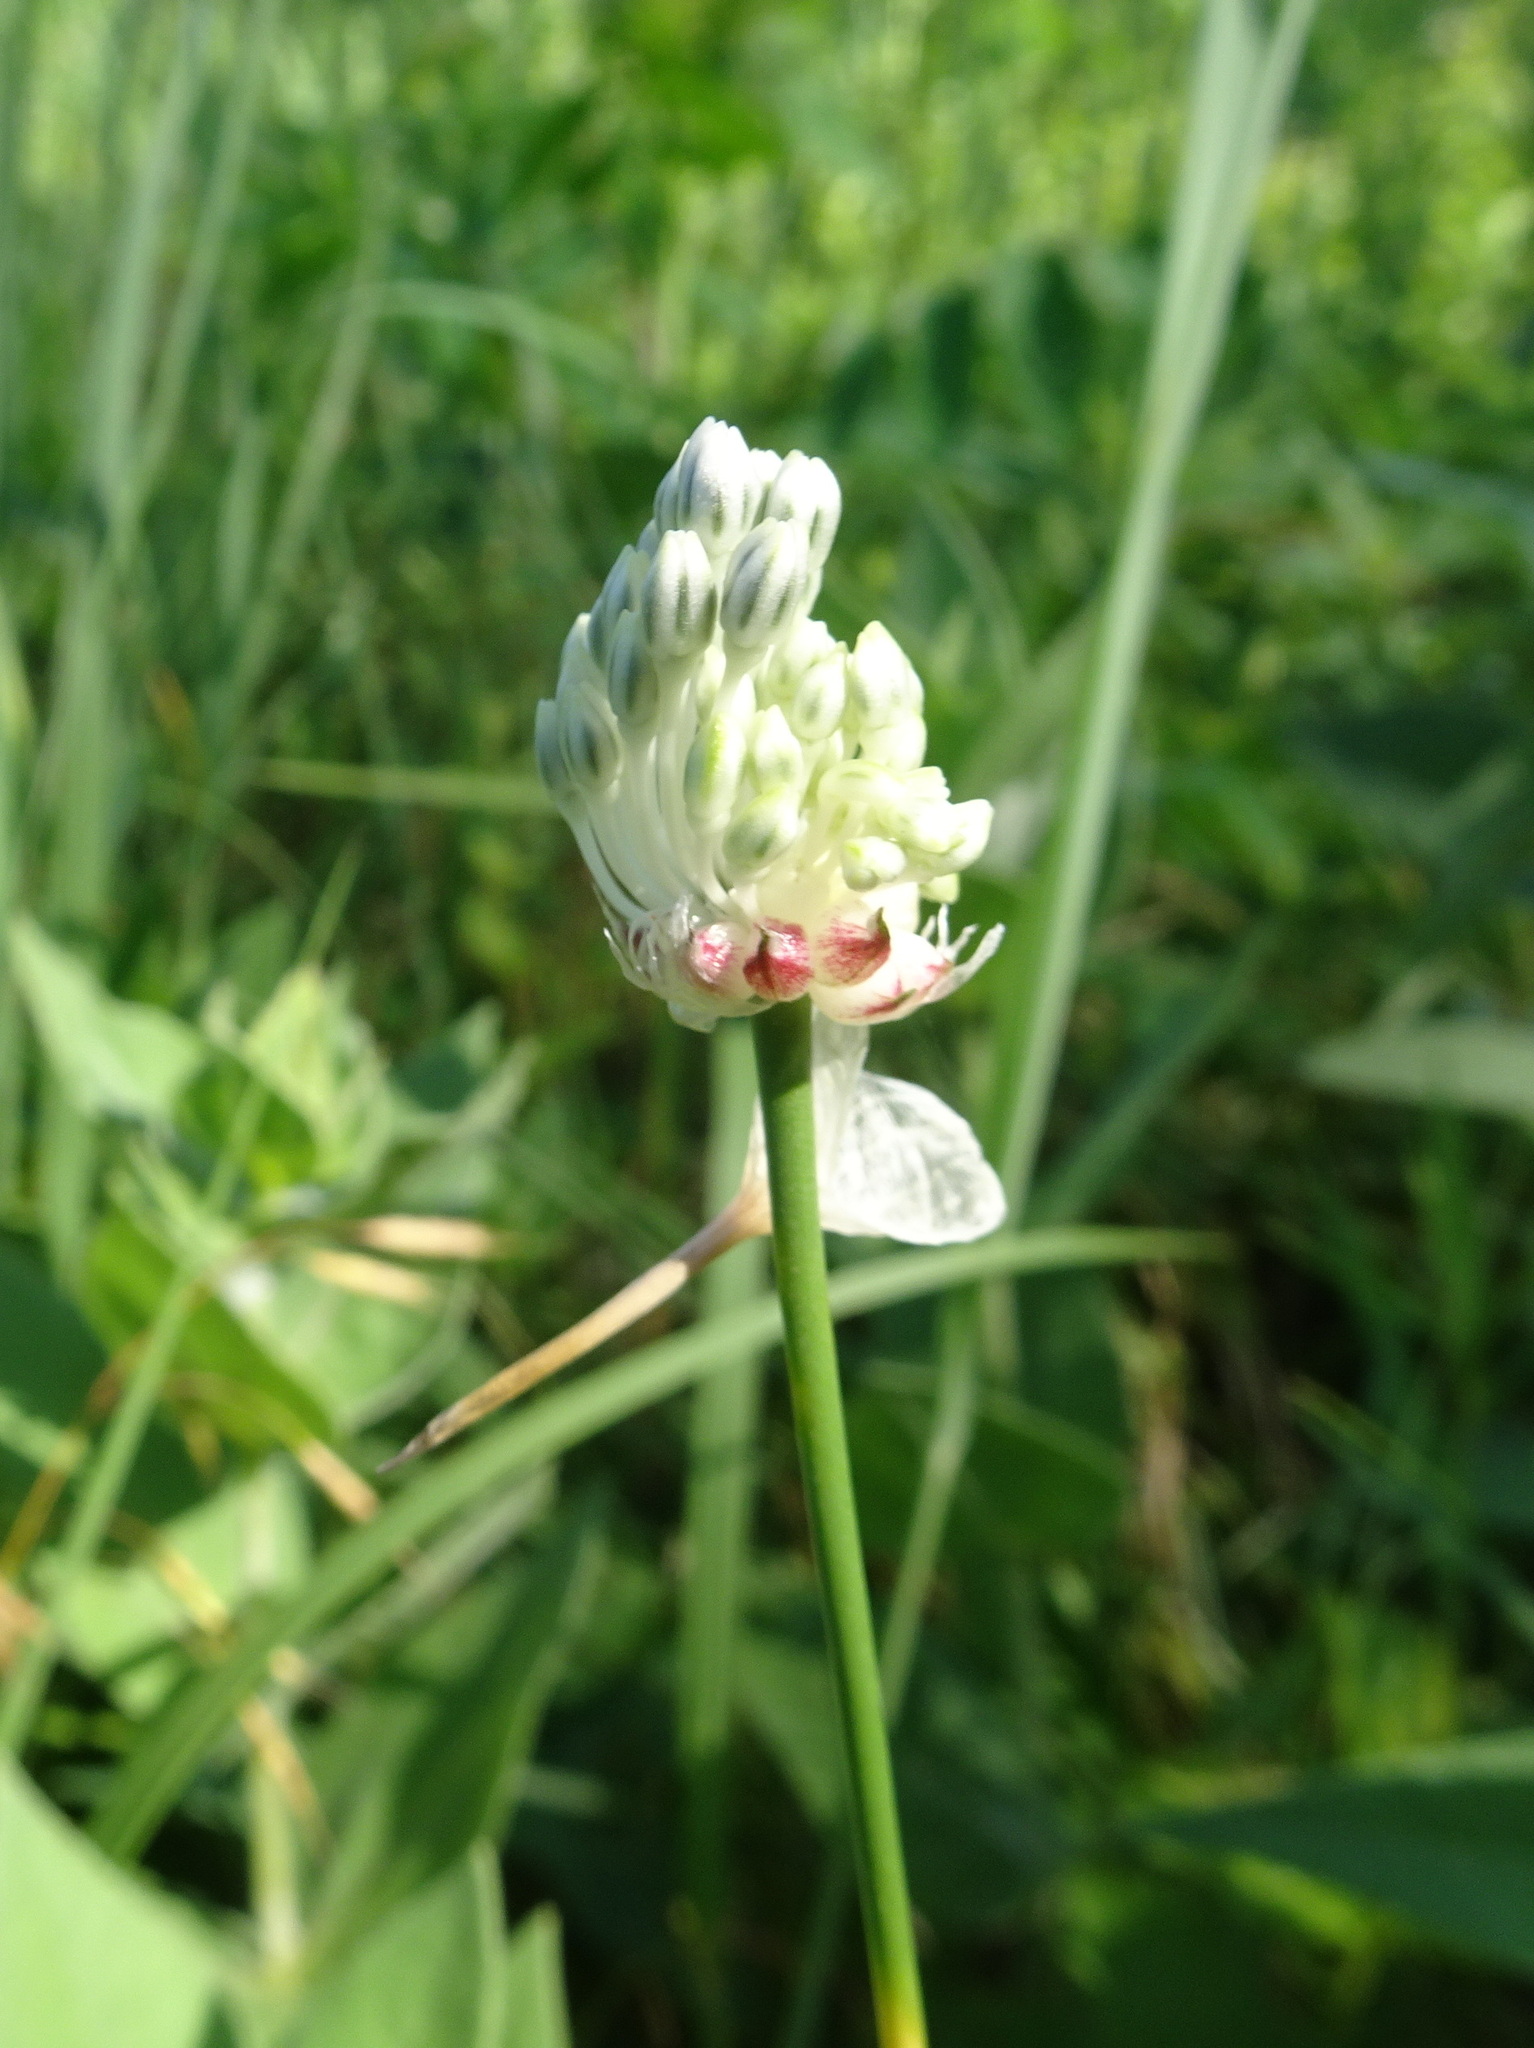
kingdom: Plantae
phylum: Tracheophyta
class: Liliopsida
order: Asparagales
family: Amaryllidaceae
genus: Allium
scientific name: Allium vineale
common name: Crow garlic
